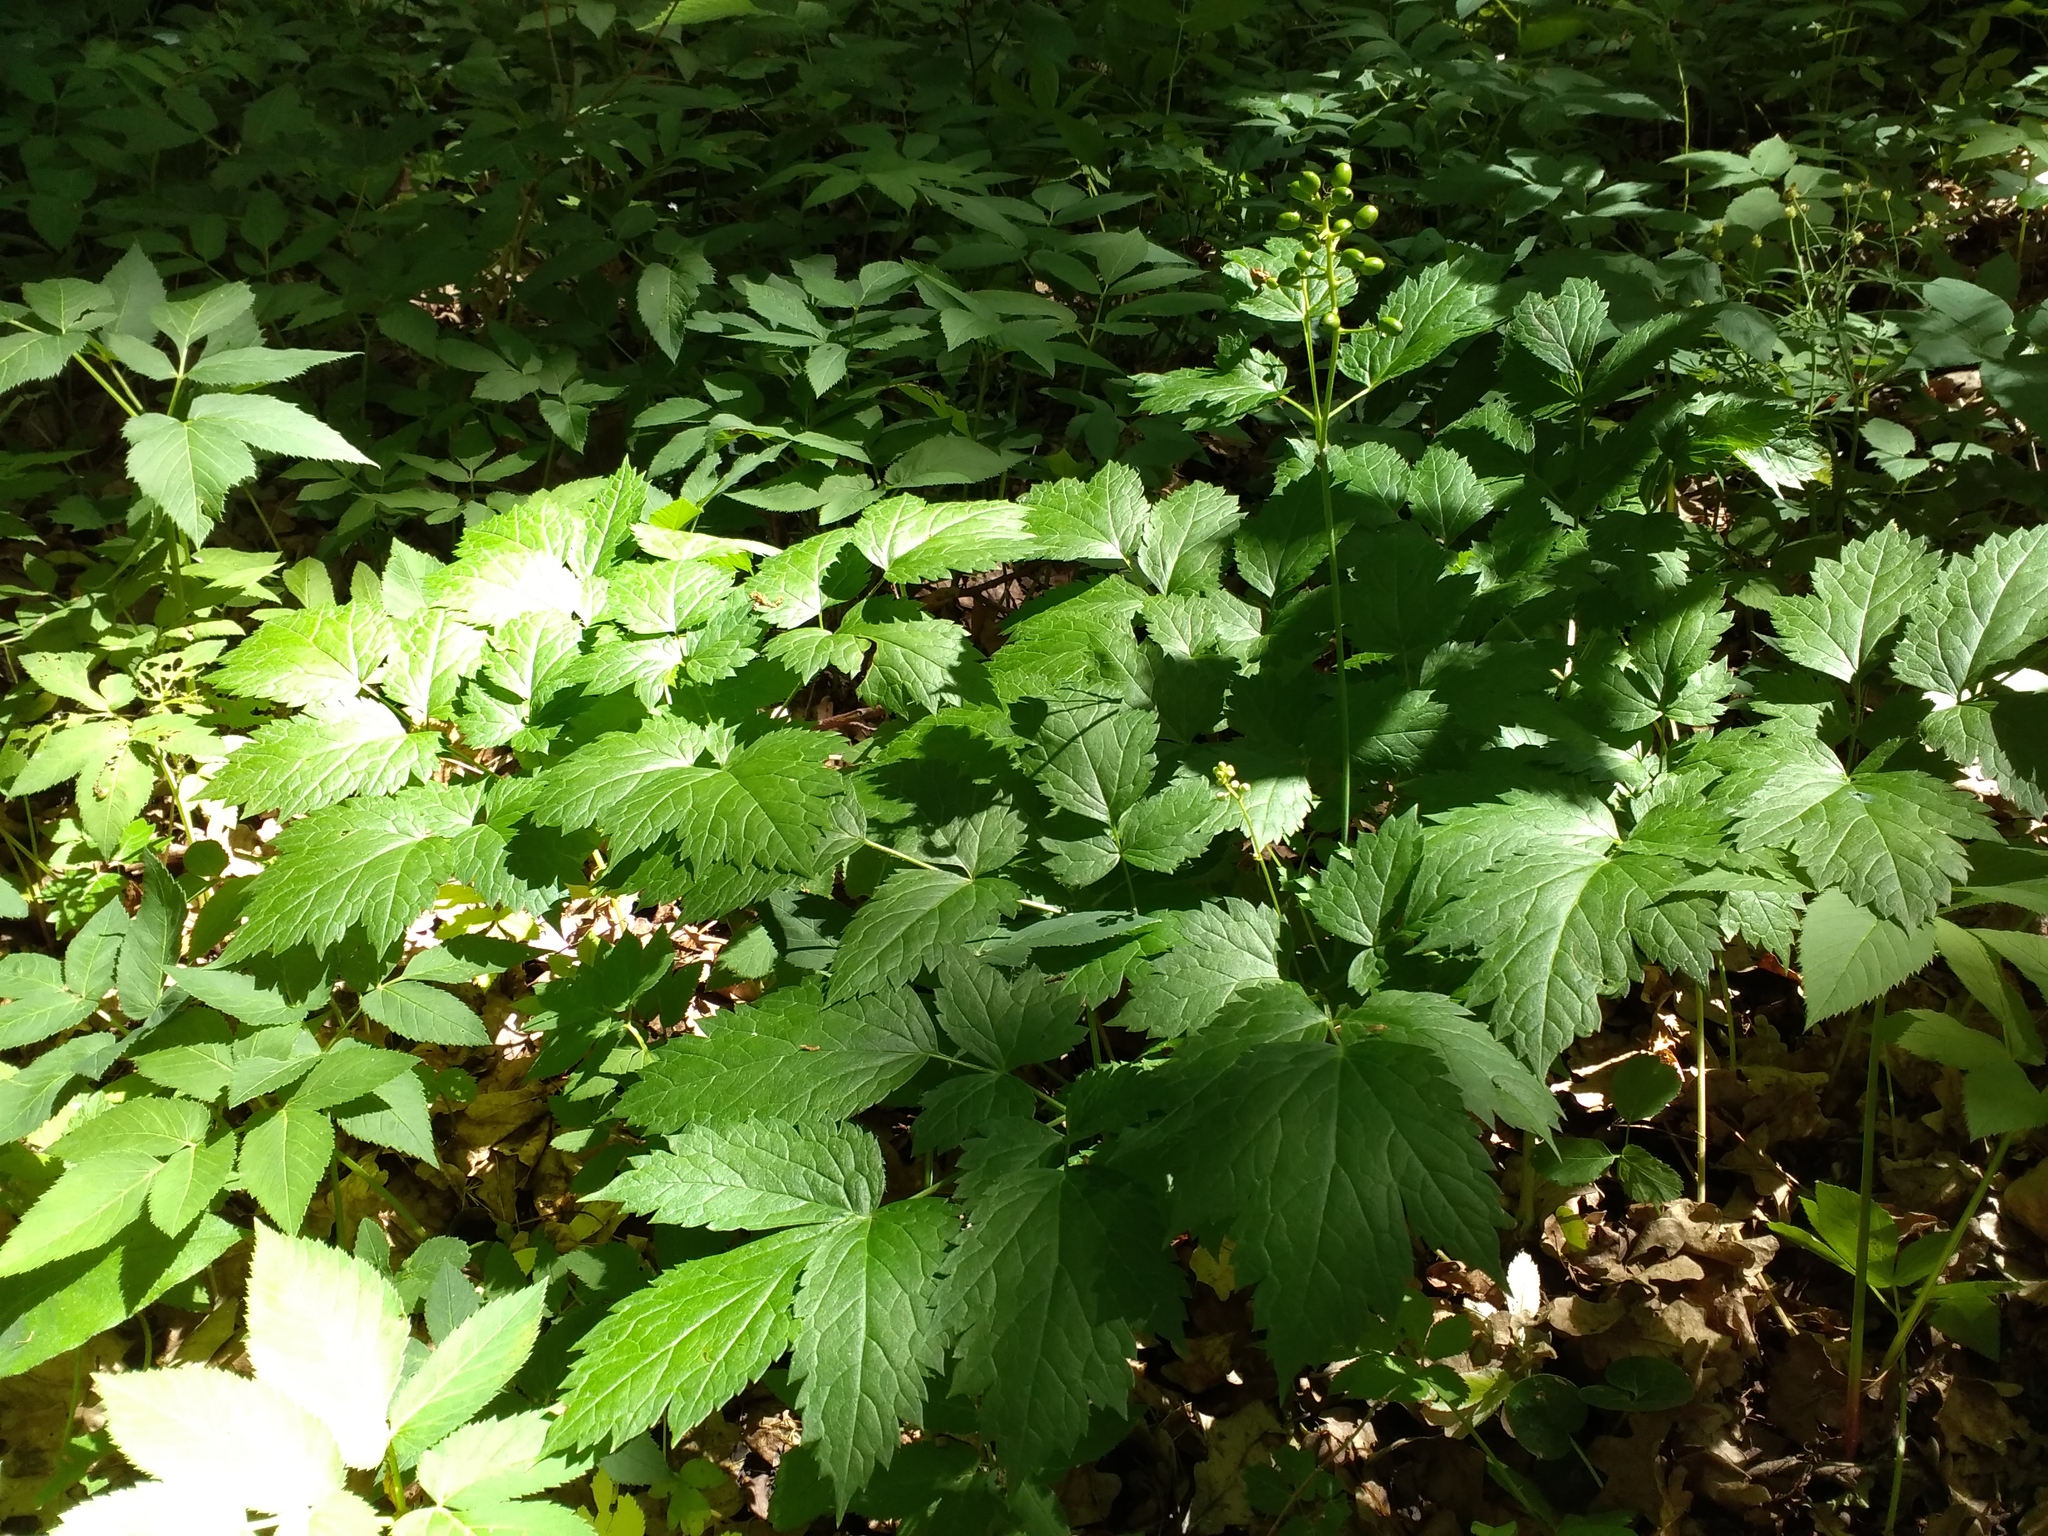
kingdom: Plantae
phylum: Tracheophyta
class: Magnoliopsida
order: Ranunculales
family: Ranunculaceae
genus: Actaea
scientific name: Actaea spicata
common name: Baneberry
